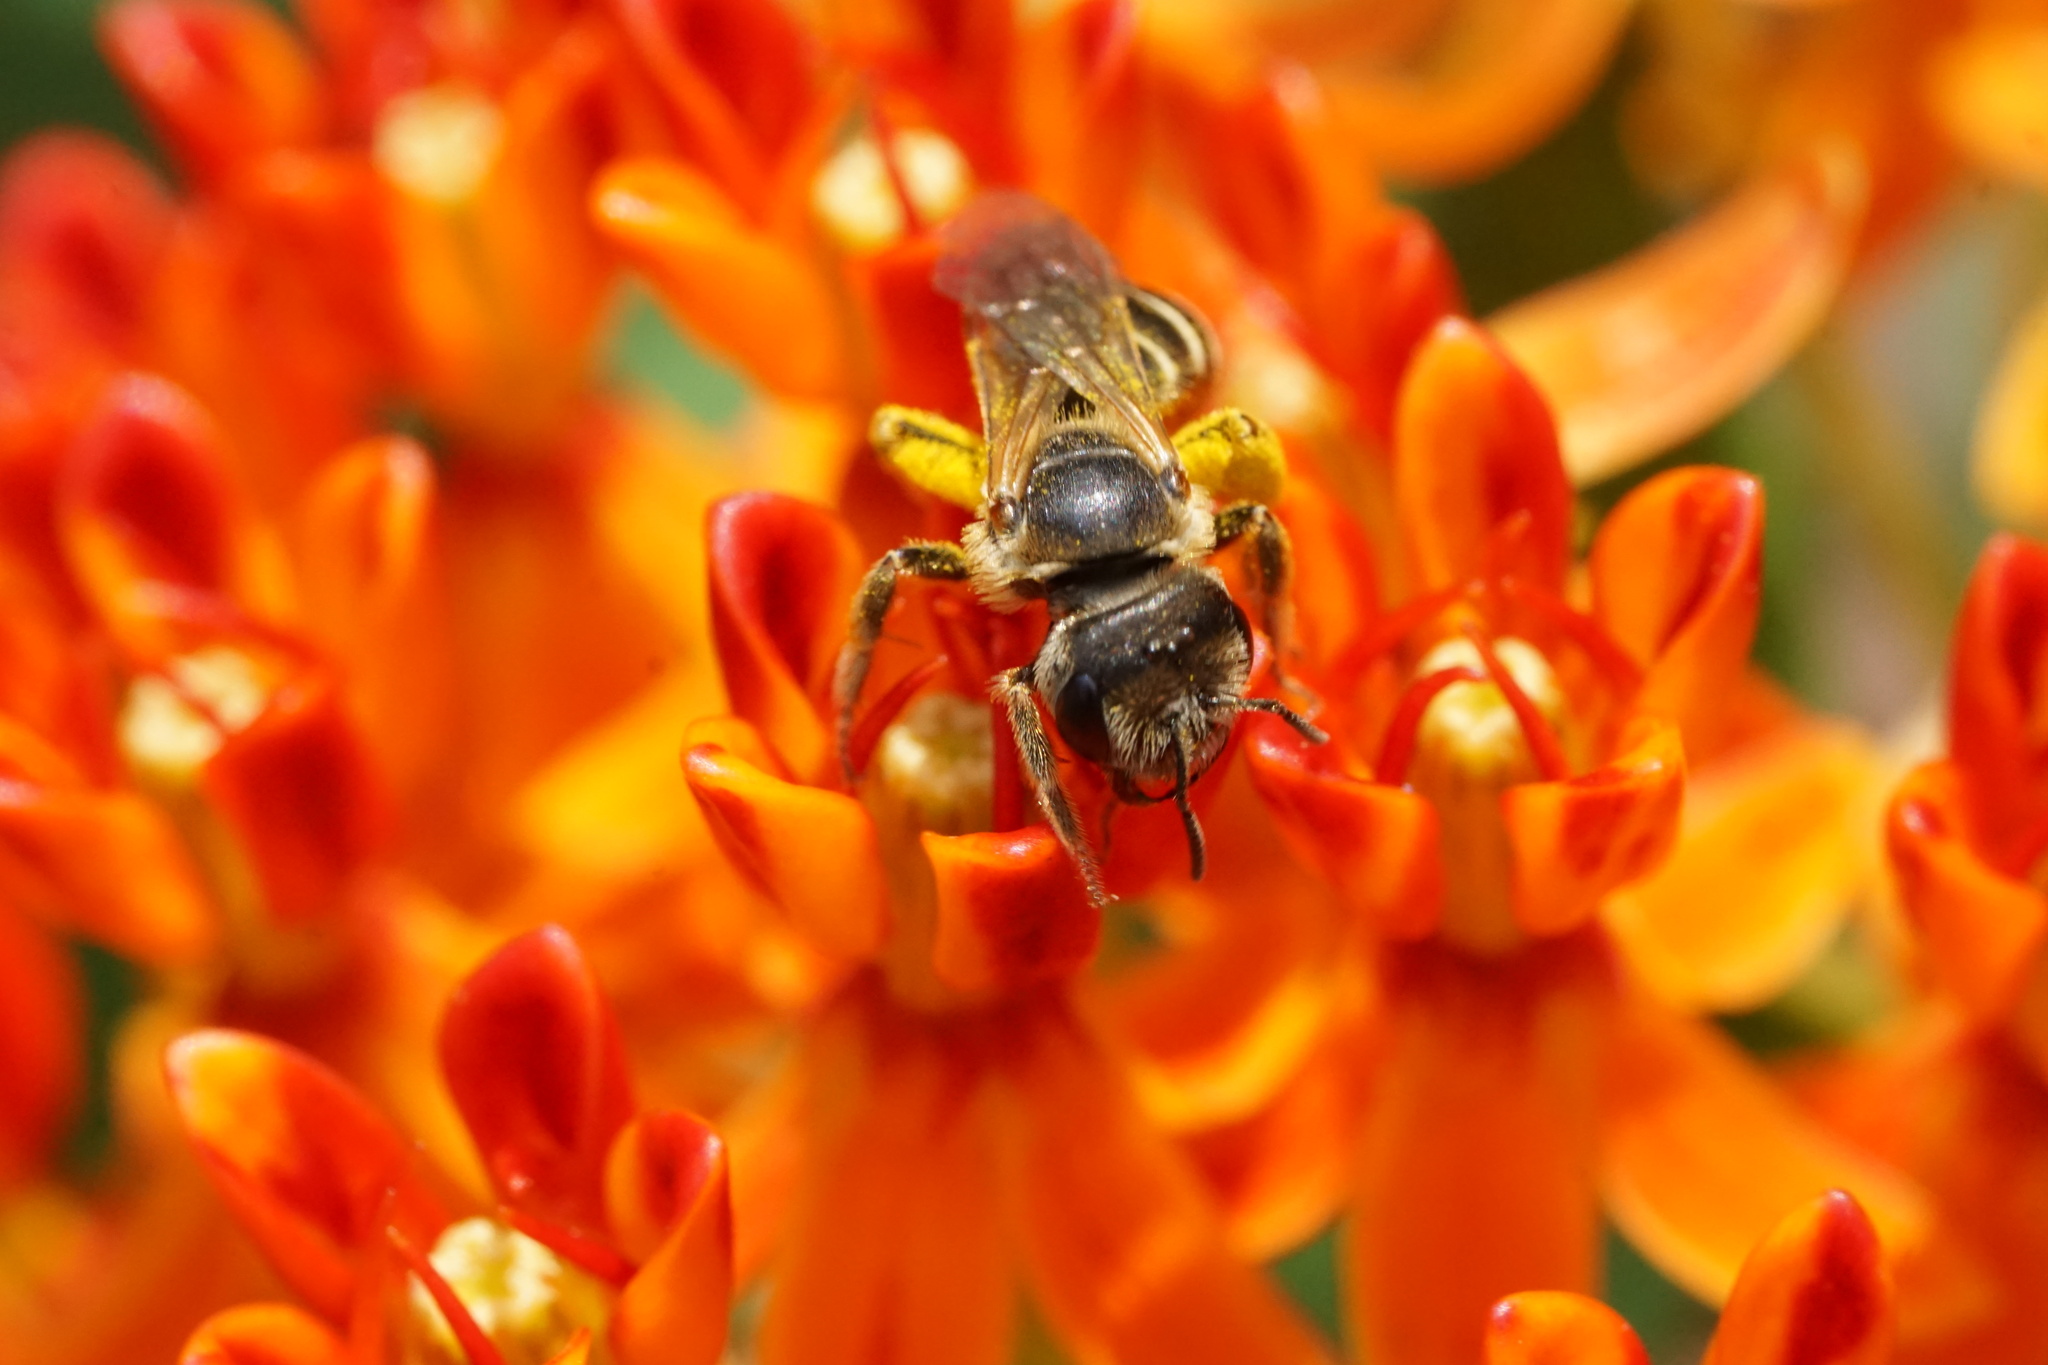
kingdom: Animalia
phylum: Arthropoda
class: Insecta
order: Hymenoptera
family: Halictidae
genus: Halictus
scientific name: Halictus ligatus
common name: Ligated furrow bee
